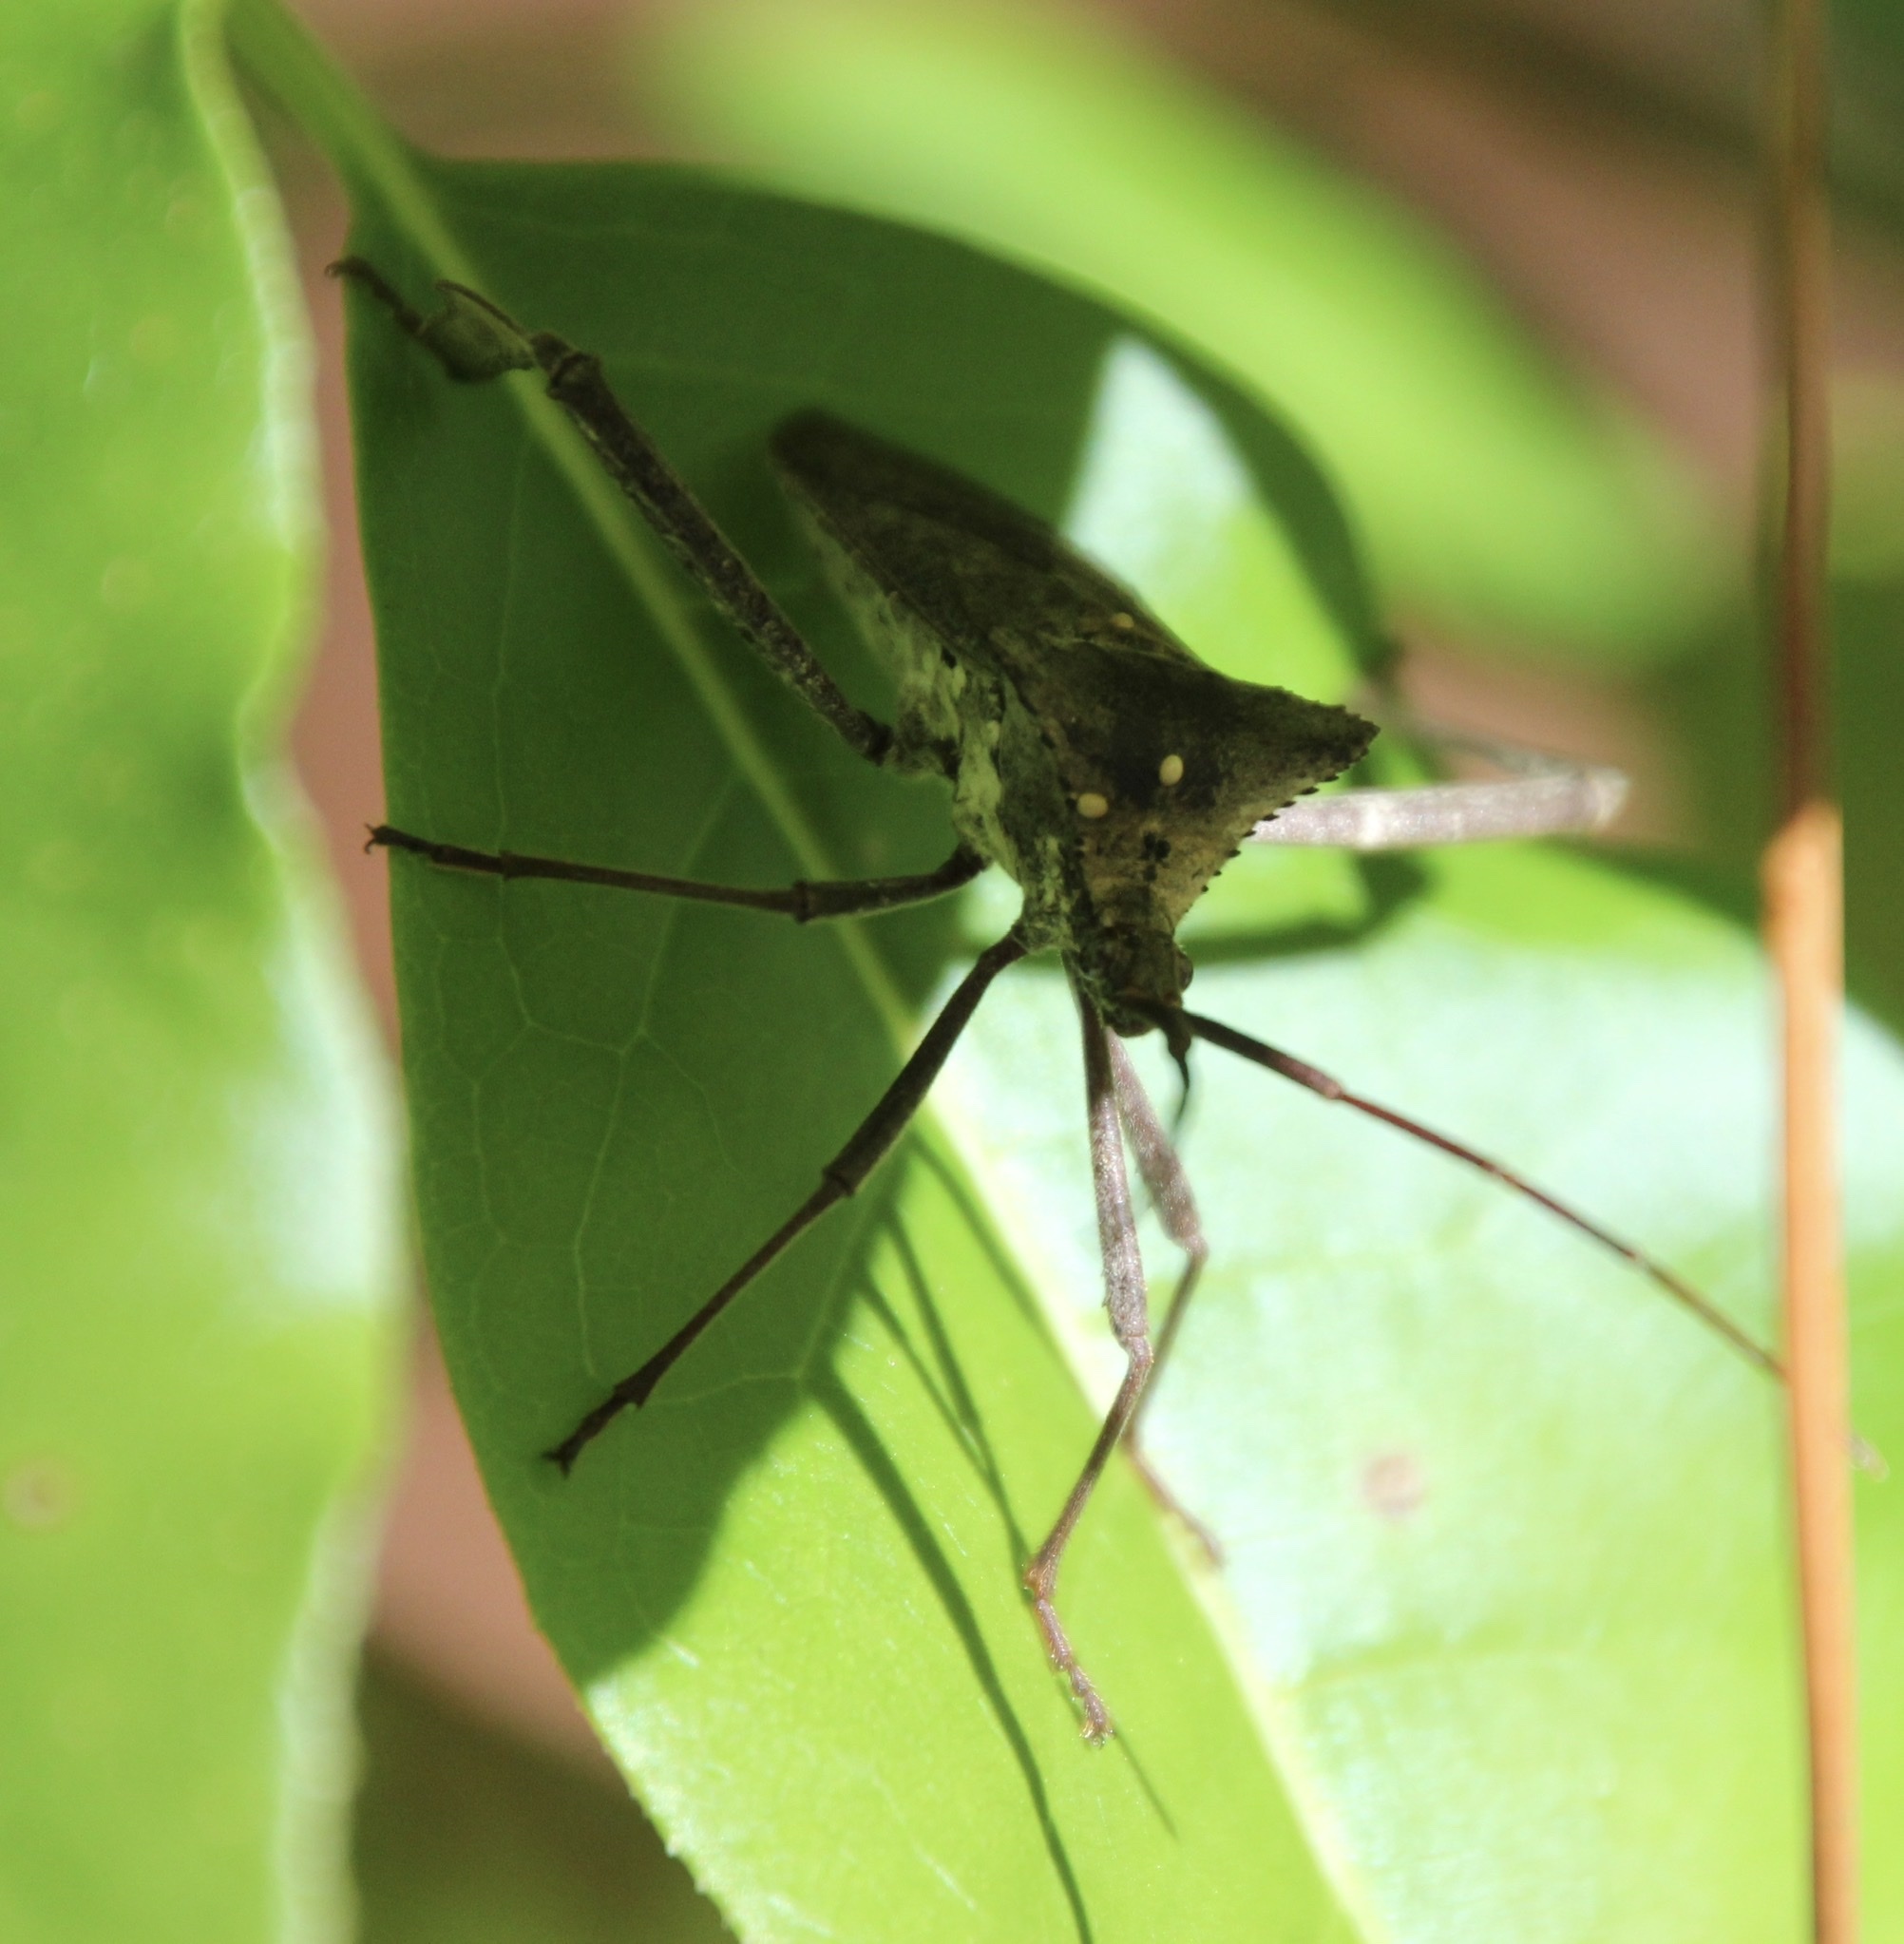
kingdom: Animalia
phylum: Arthropoda
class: Insecta
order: Hemiptera
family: Coreidae
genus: Acanthocephala
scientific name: Acanthocephala declivis
